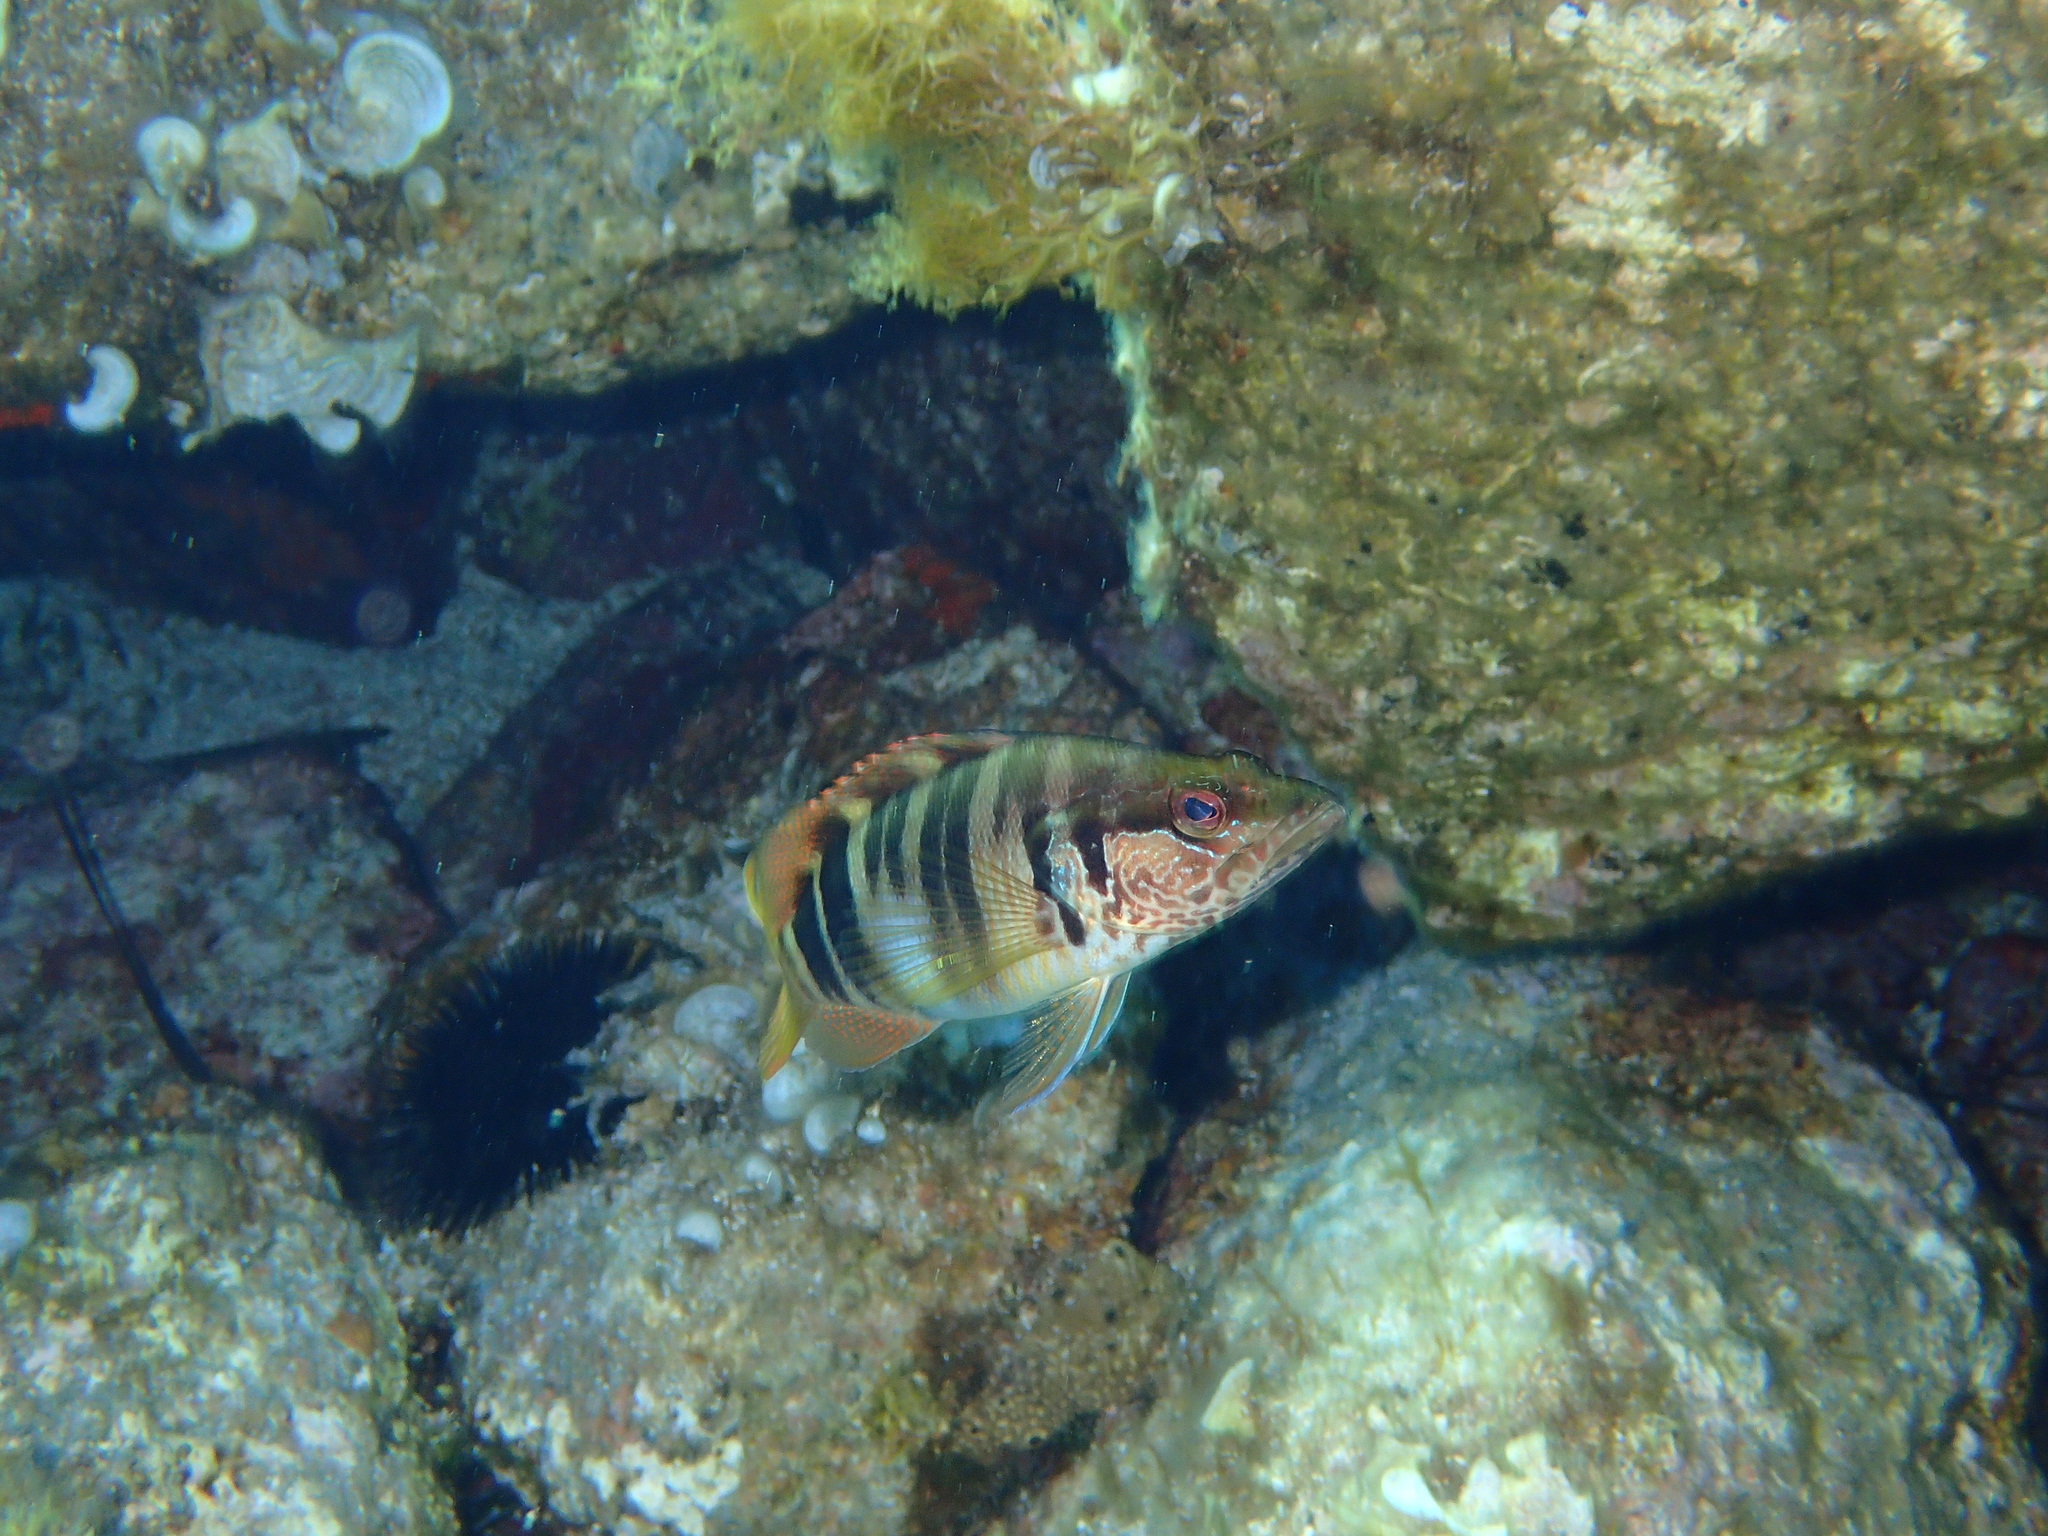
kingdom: Animalia
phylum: Chordata
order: Perciformes
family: Serranidae
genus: Serranus
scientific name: Serranus scriba
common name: Painted comber
